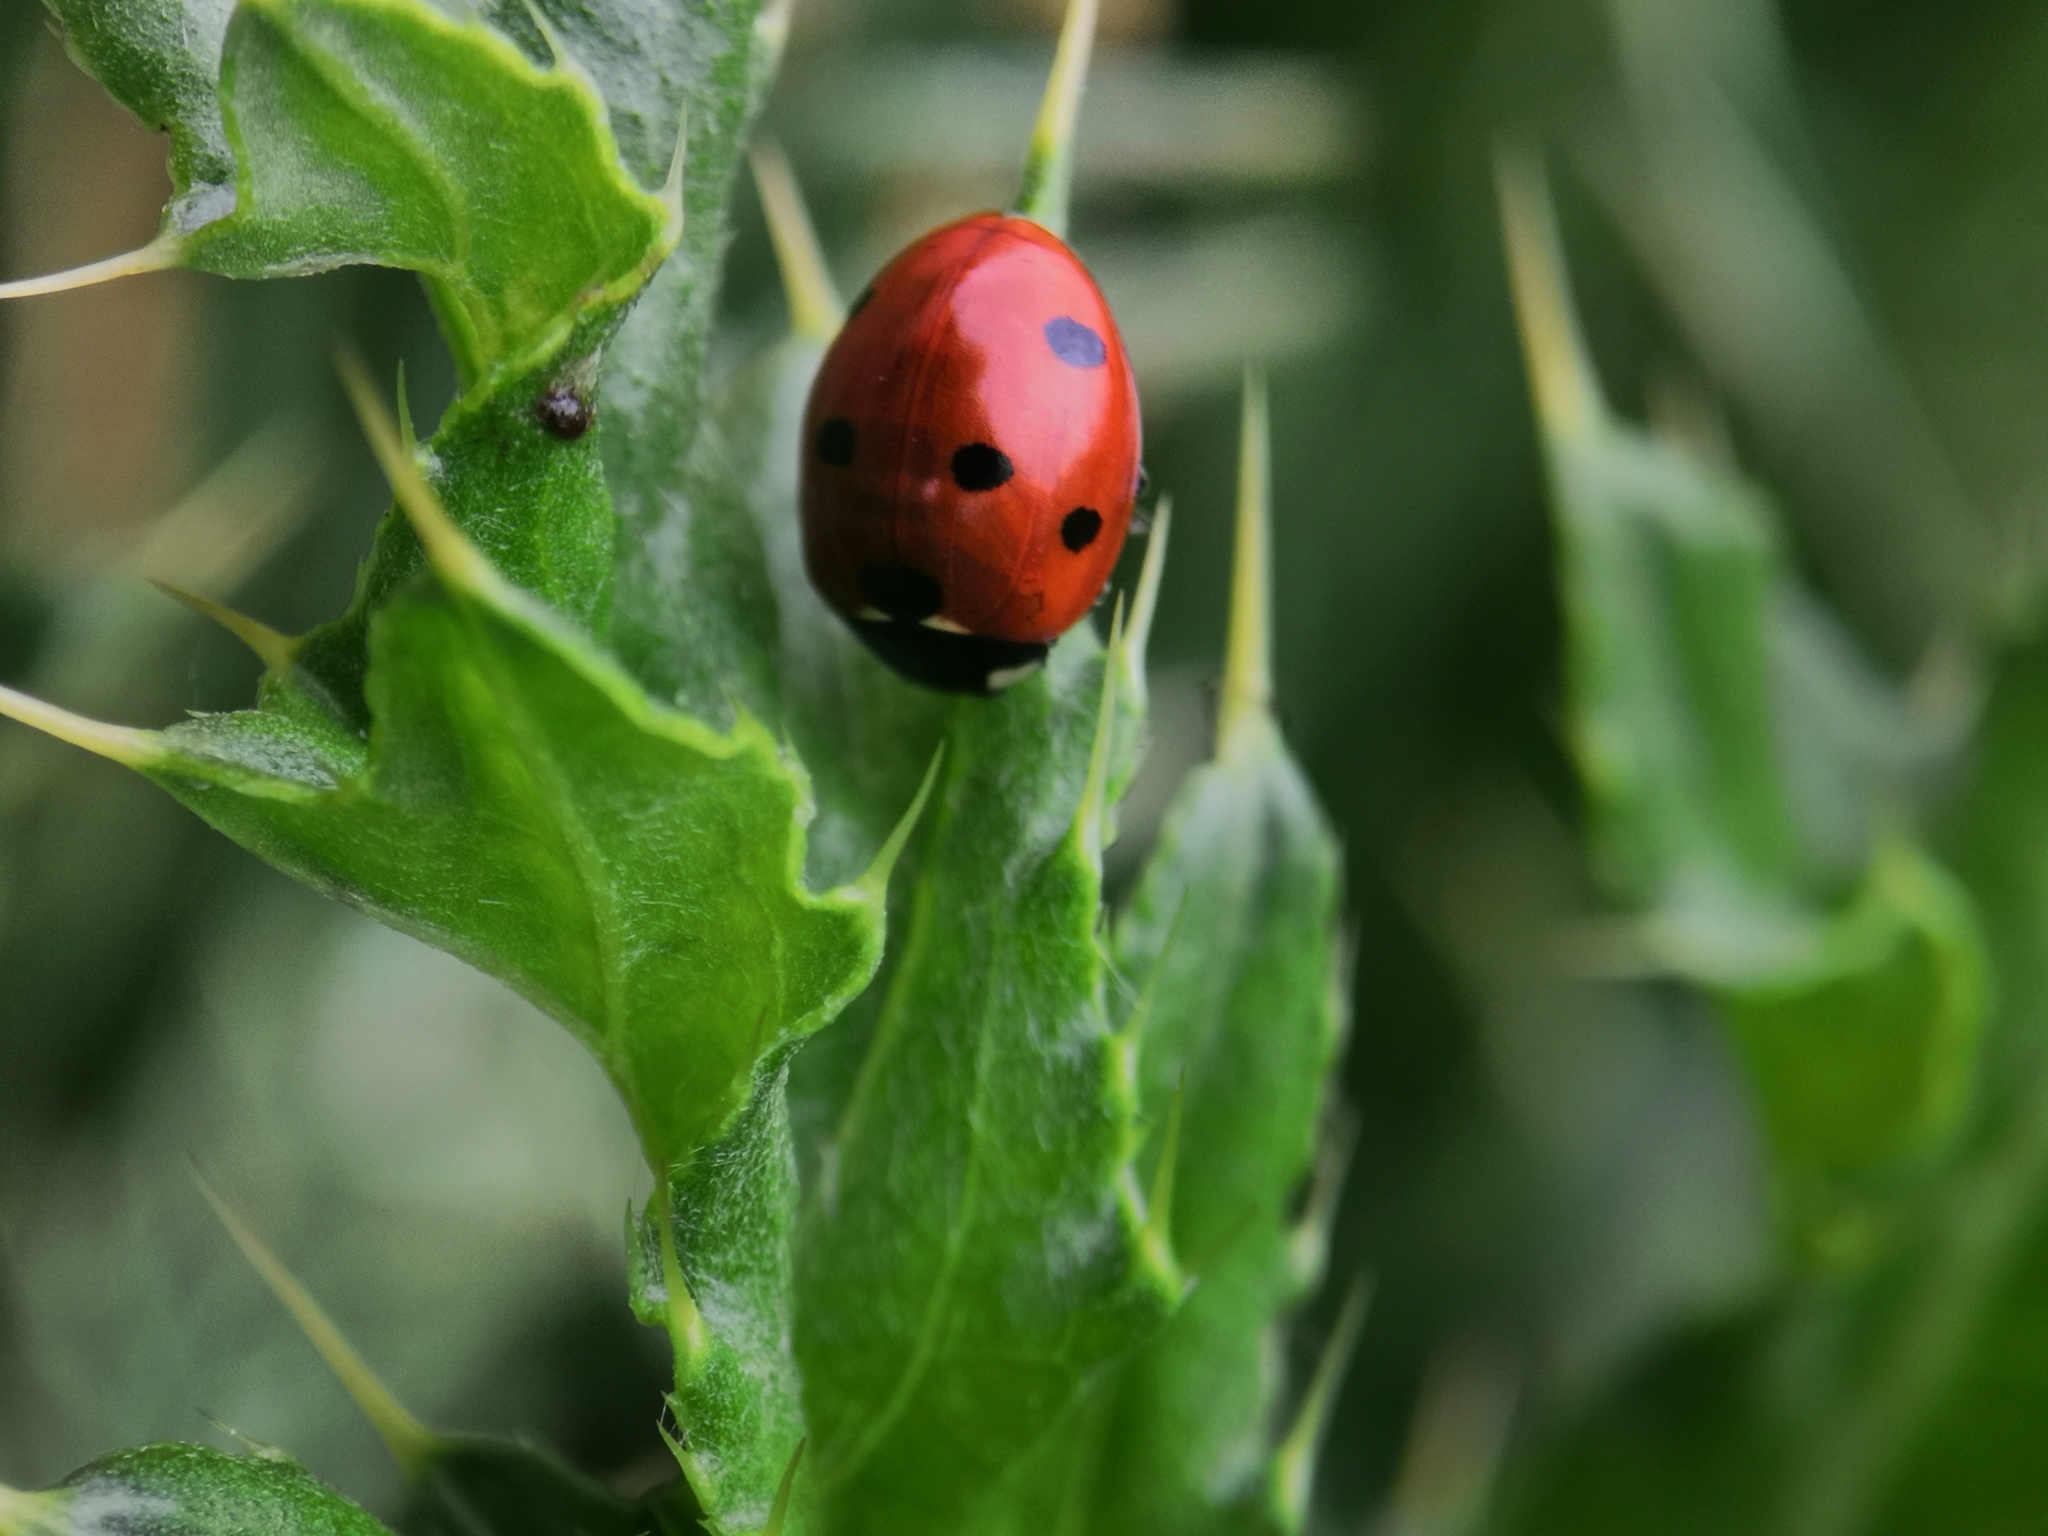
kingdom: Animalia
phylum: Arthropoda
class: Insecta
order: Coleoptera
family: Coccinellidae
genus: Coccinella
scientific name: Coccinella septempunctata
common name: Sevenspotted lady beetle
